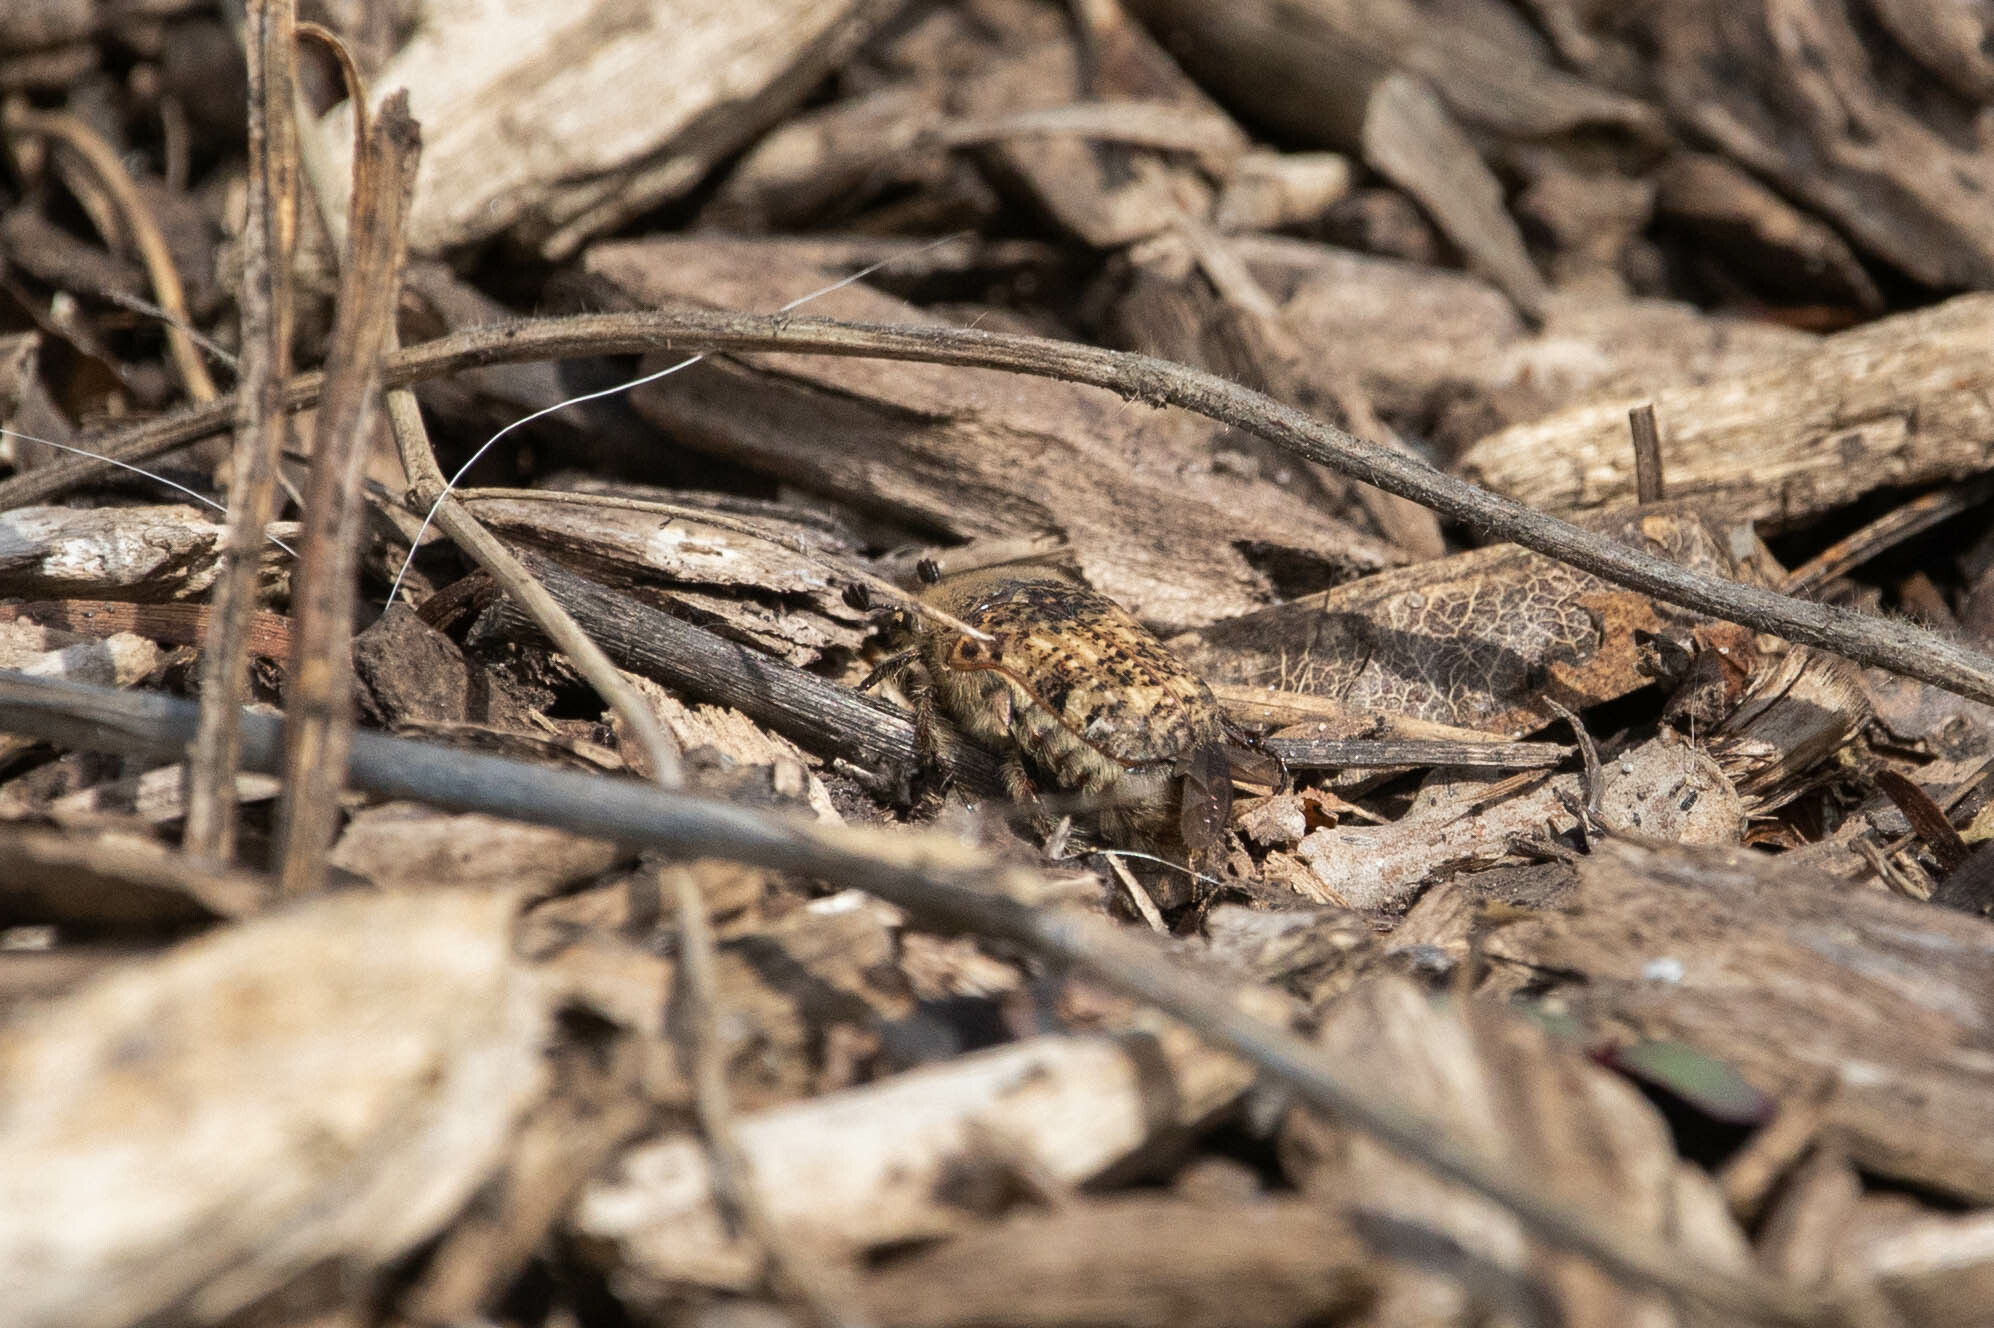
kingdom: Animalia
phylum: Arthropoda
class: Insecta
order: Coleoptera
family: Scarabaeidae
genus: Euphoria
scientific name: Euphoria inda
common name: Bumble flower beetle
